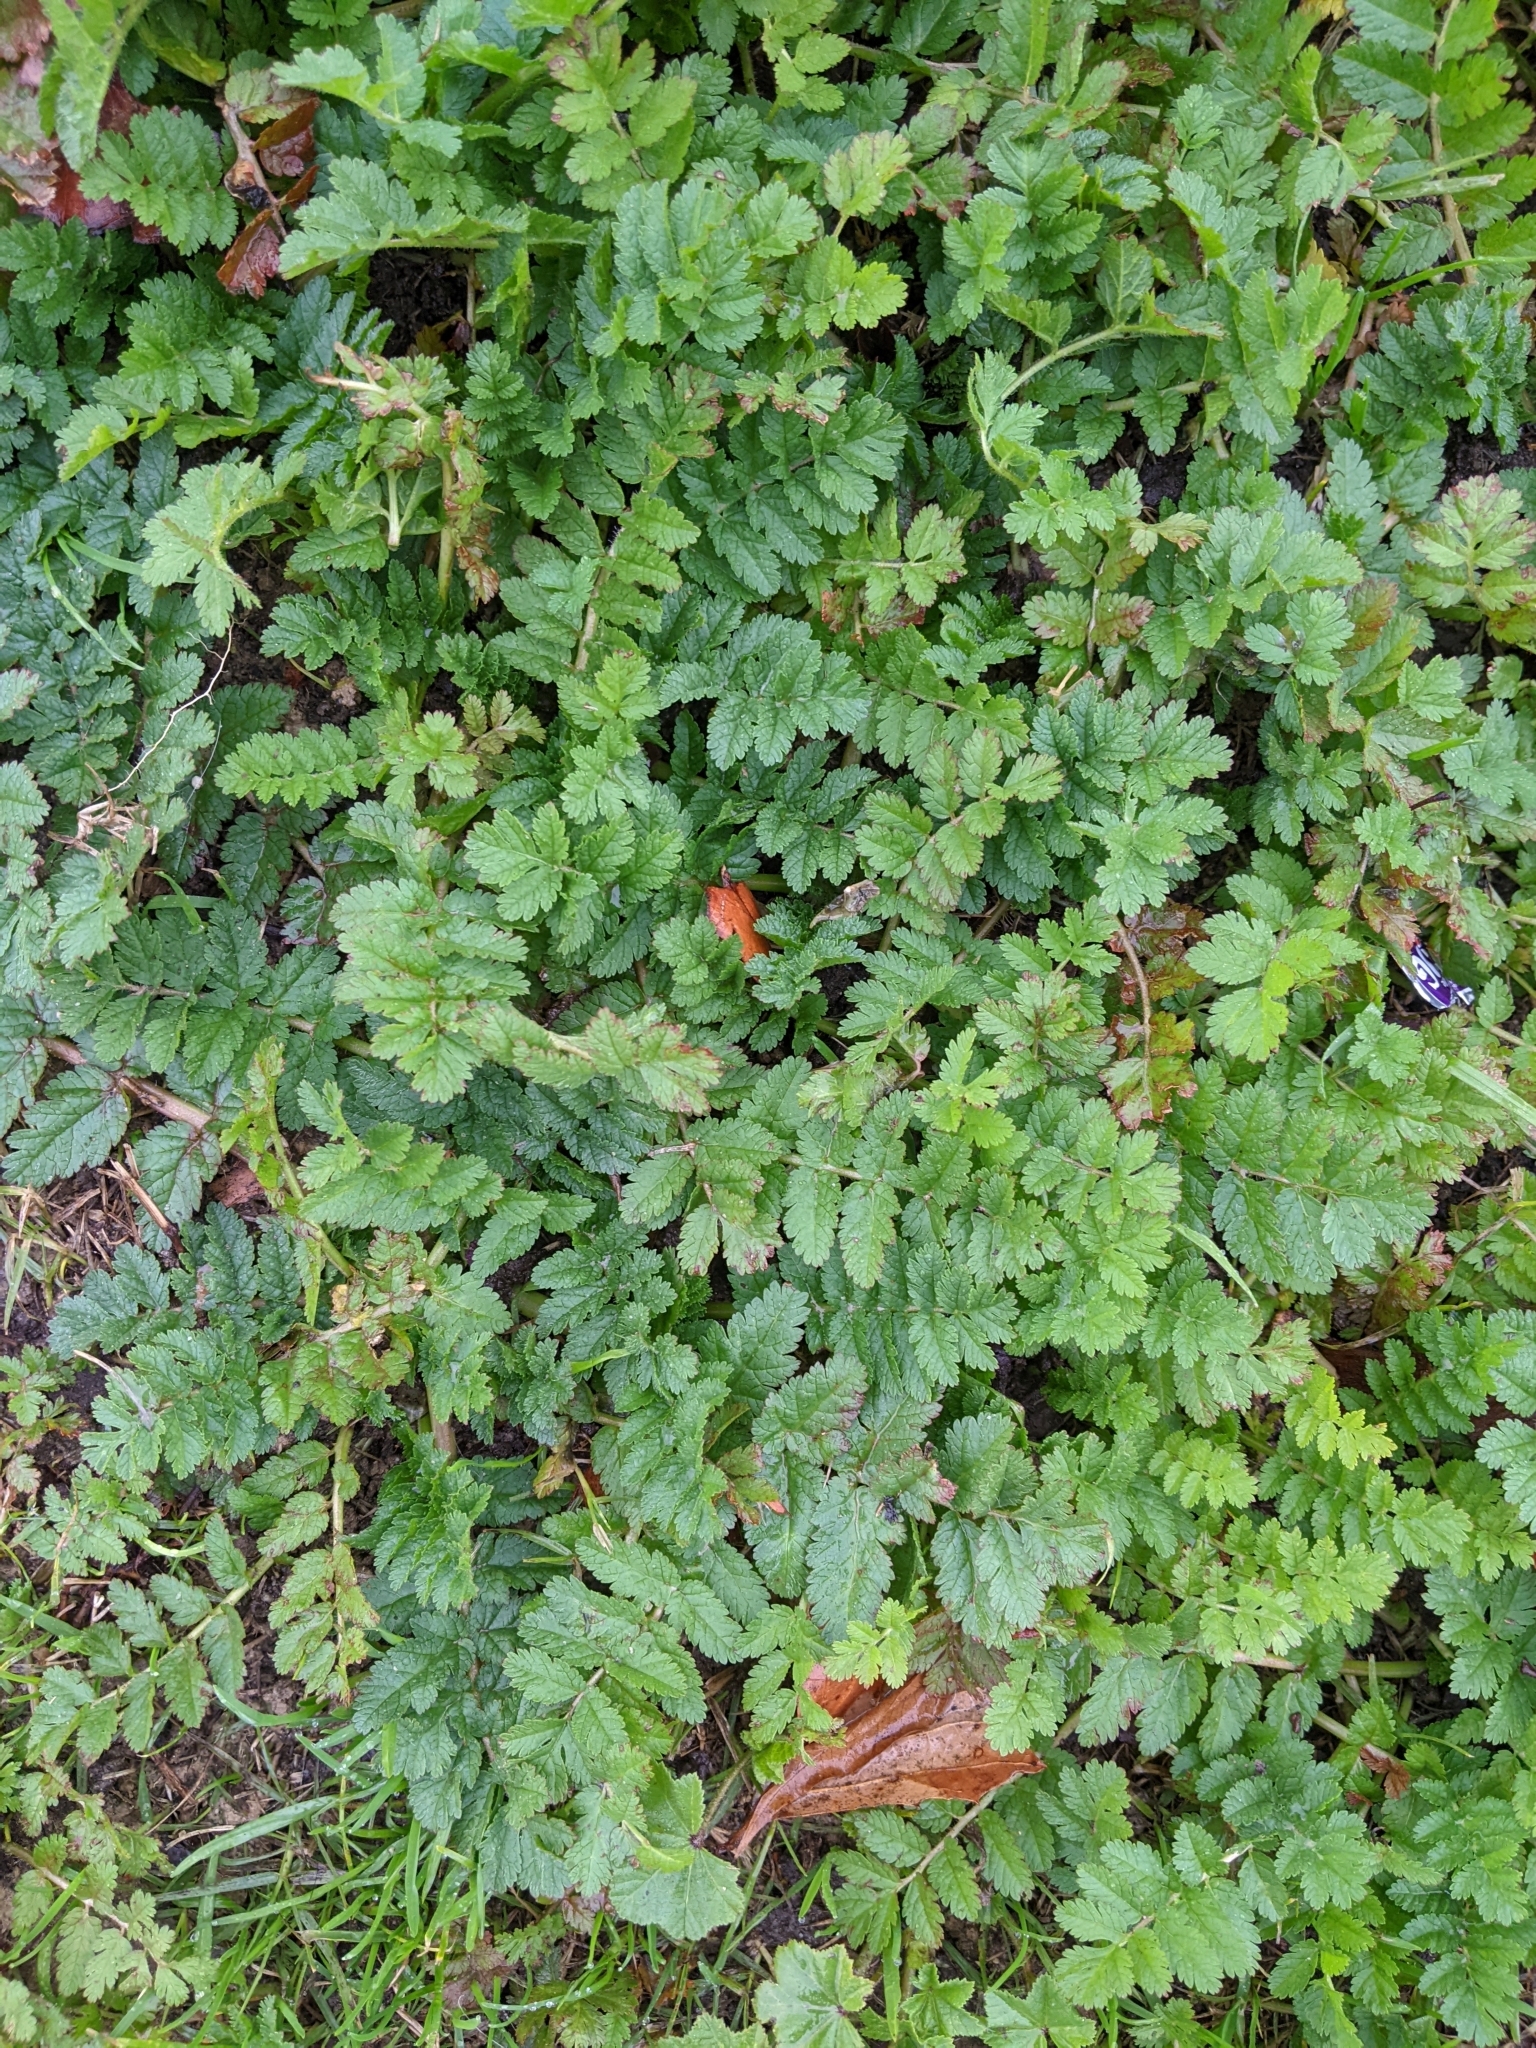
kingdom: Plantae
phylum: Tracheophyta
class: Magnoliopsida
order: Geraniales
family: Geraniaceae
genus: Erodium
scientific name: Erodium moschatum
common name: Musk stork's-bill
